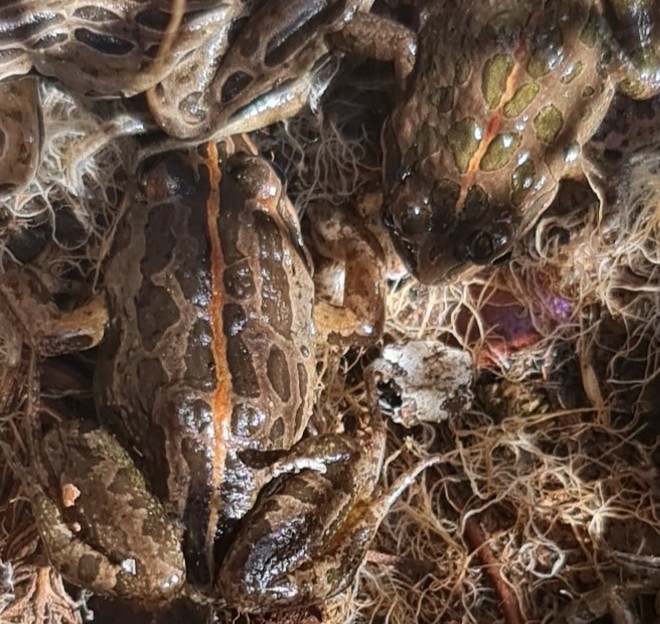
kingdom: Animalia
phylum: Chordata
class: Amphibia
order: Anura
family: Limnodynastidae
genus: Limnodynastes
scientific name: Limnodynastes tasmaniensis
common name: Spotted marsh frog
